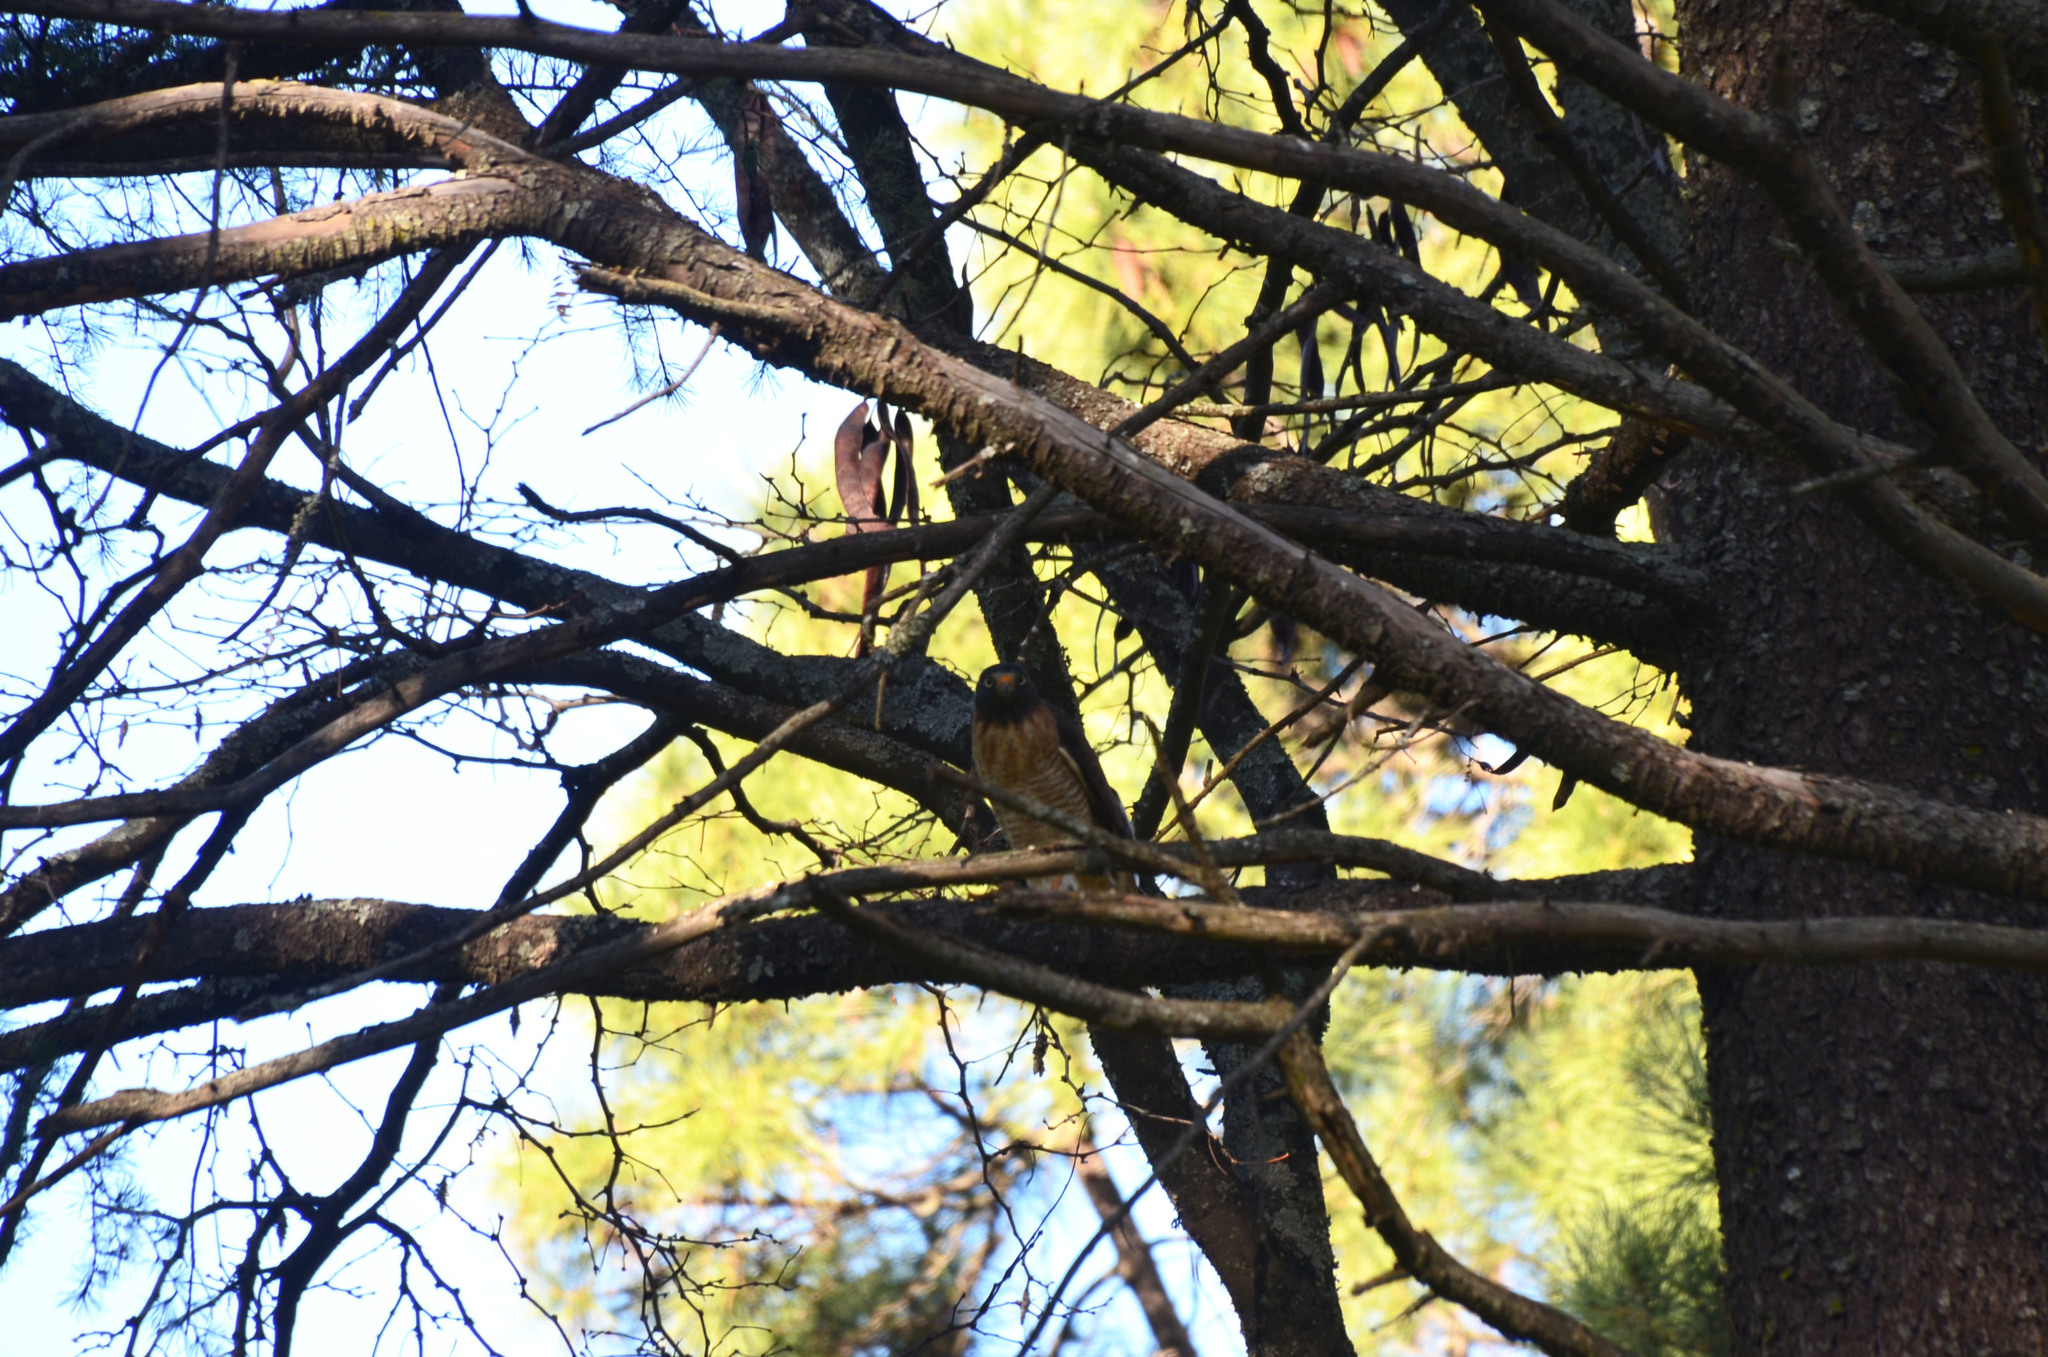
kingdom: Animalia
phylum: Chordata
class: Aves
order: Accipitriformes
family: Accipitridae
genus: Rupornis
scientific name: Rupornis magnirostris
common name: Roadside hawk
